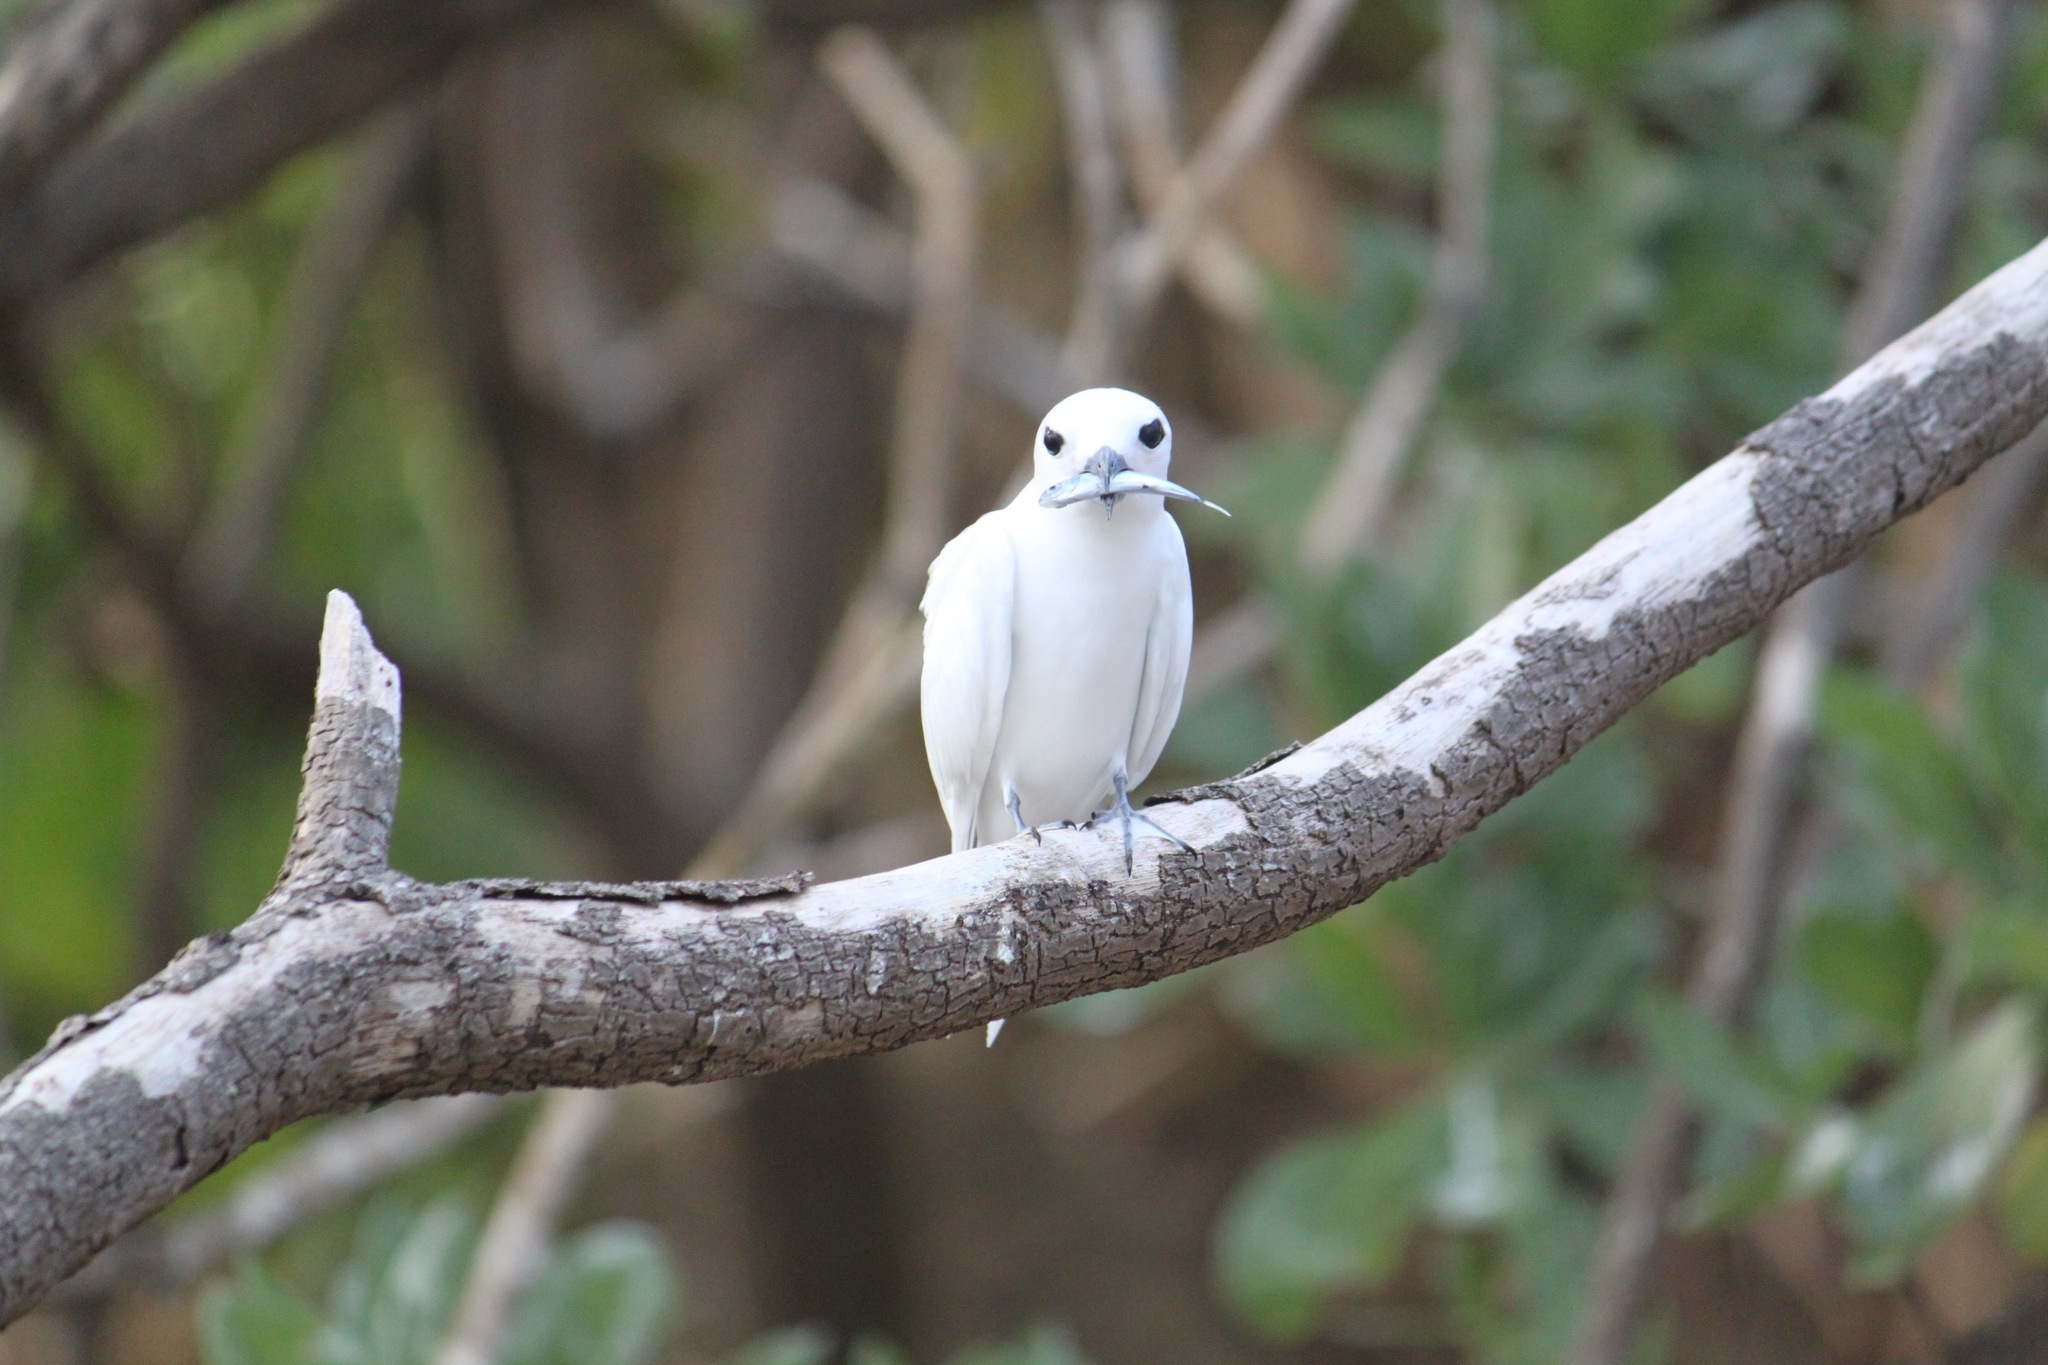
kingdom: Animalia
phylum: Chordata
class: Aves
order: Charadriiformes
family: Laridae
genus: Gygis
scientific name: Gygis alba
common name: White tern
